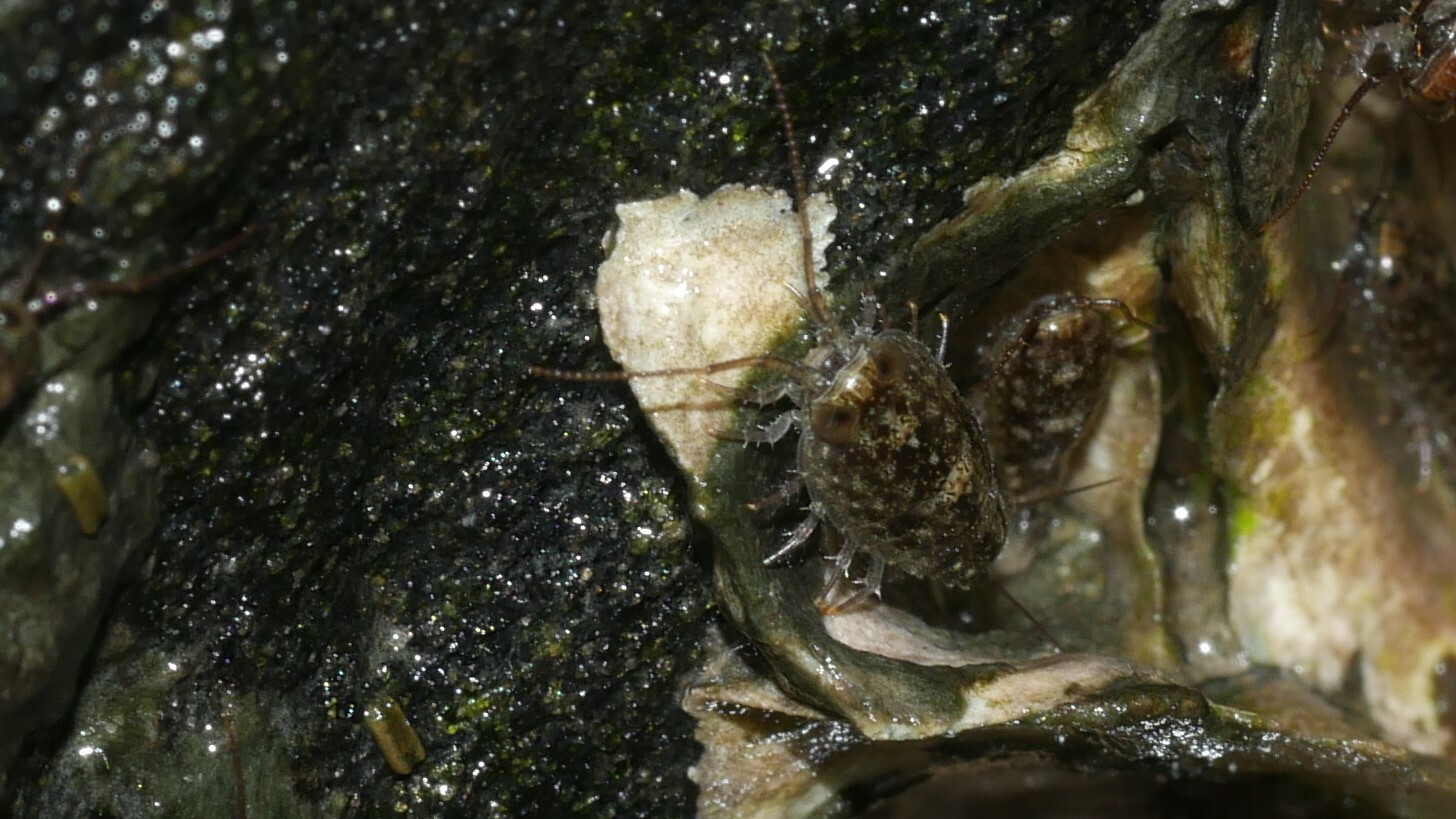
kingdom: Animalia
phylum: Arthropoda
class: Malacostraca
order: Isopoda
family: Ligiidae
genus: Ligia
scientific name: Ligia exotica
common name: Wharf roach
